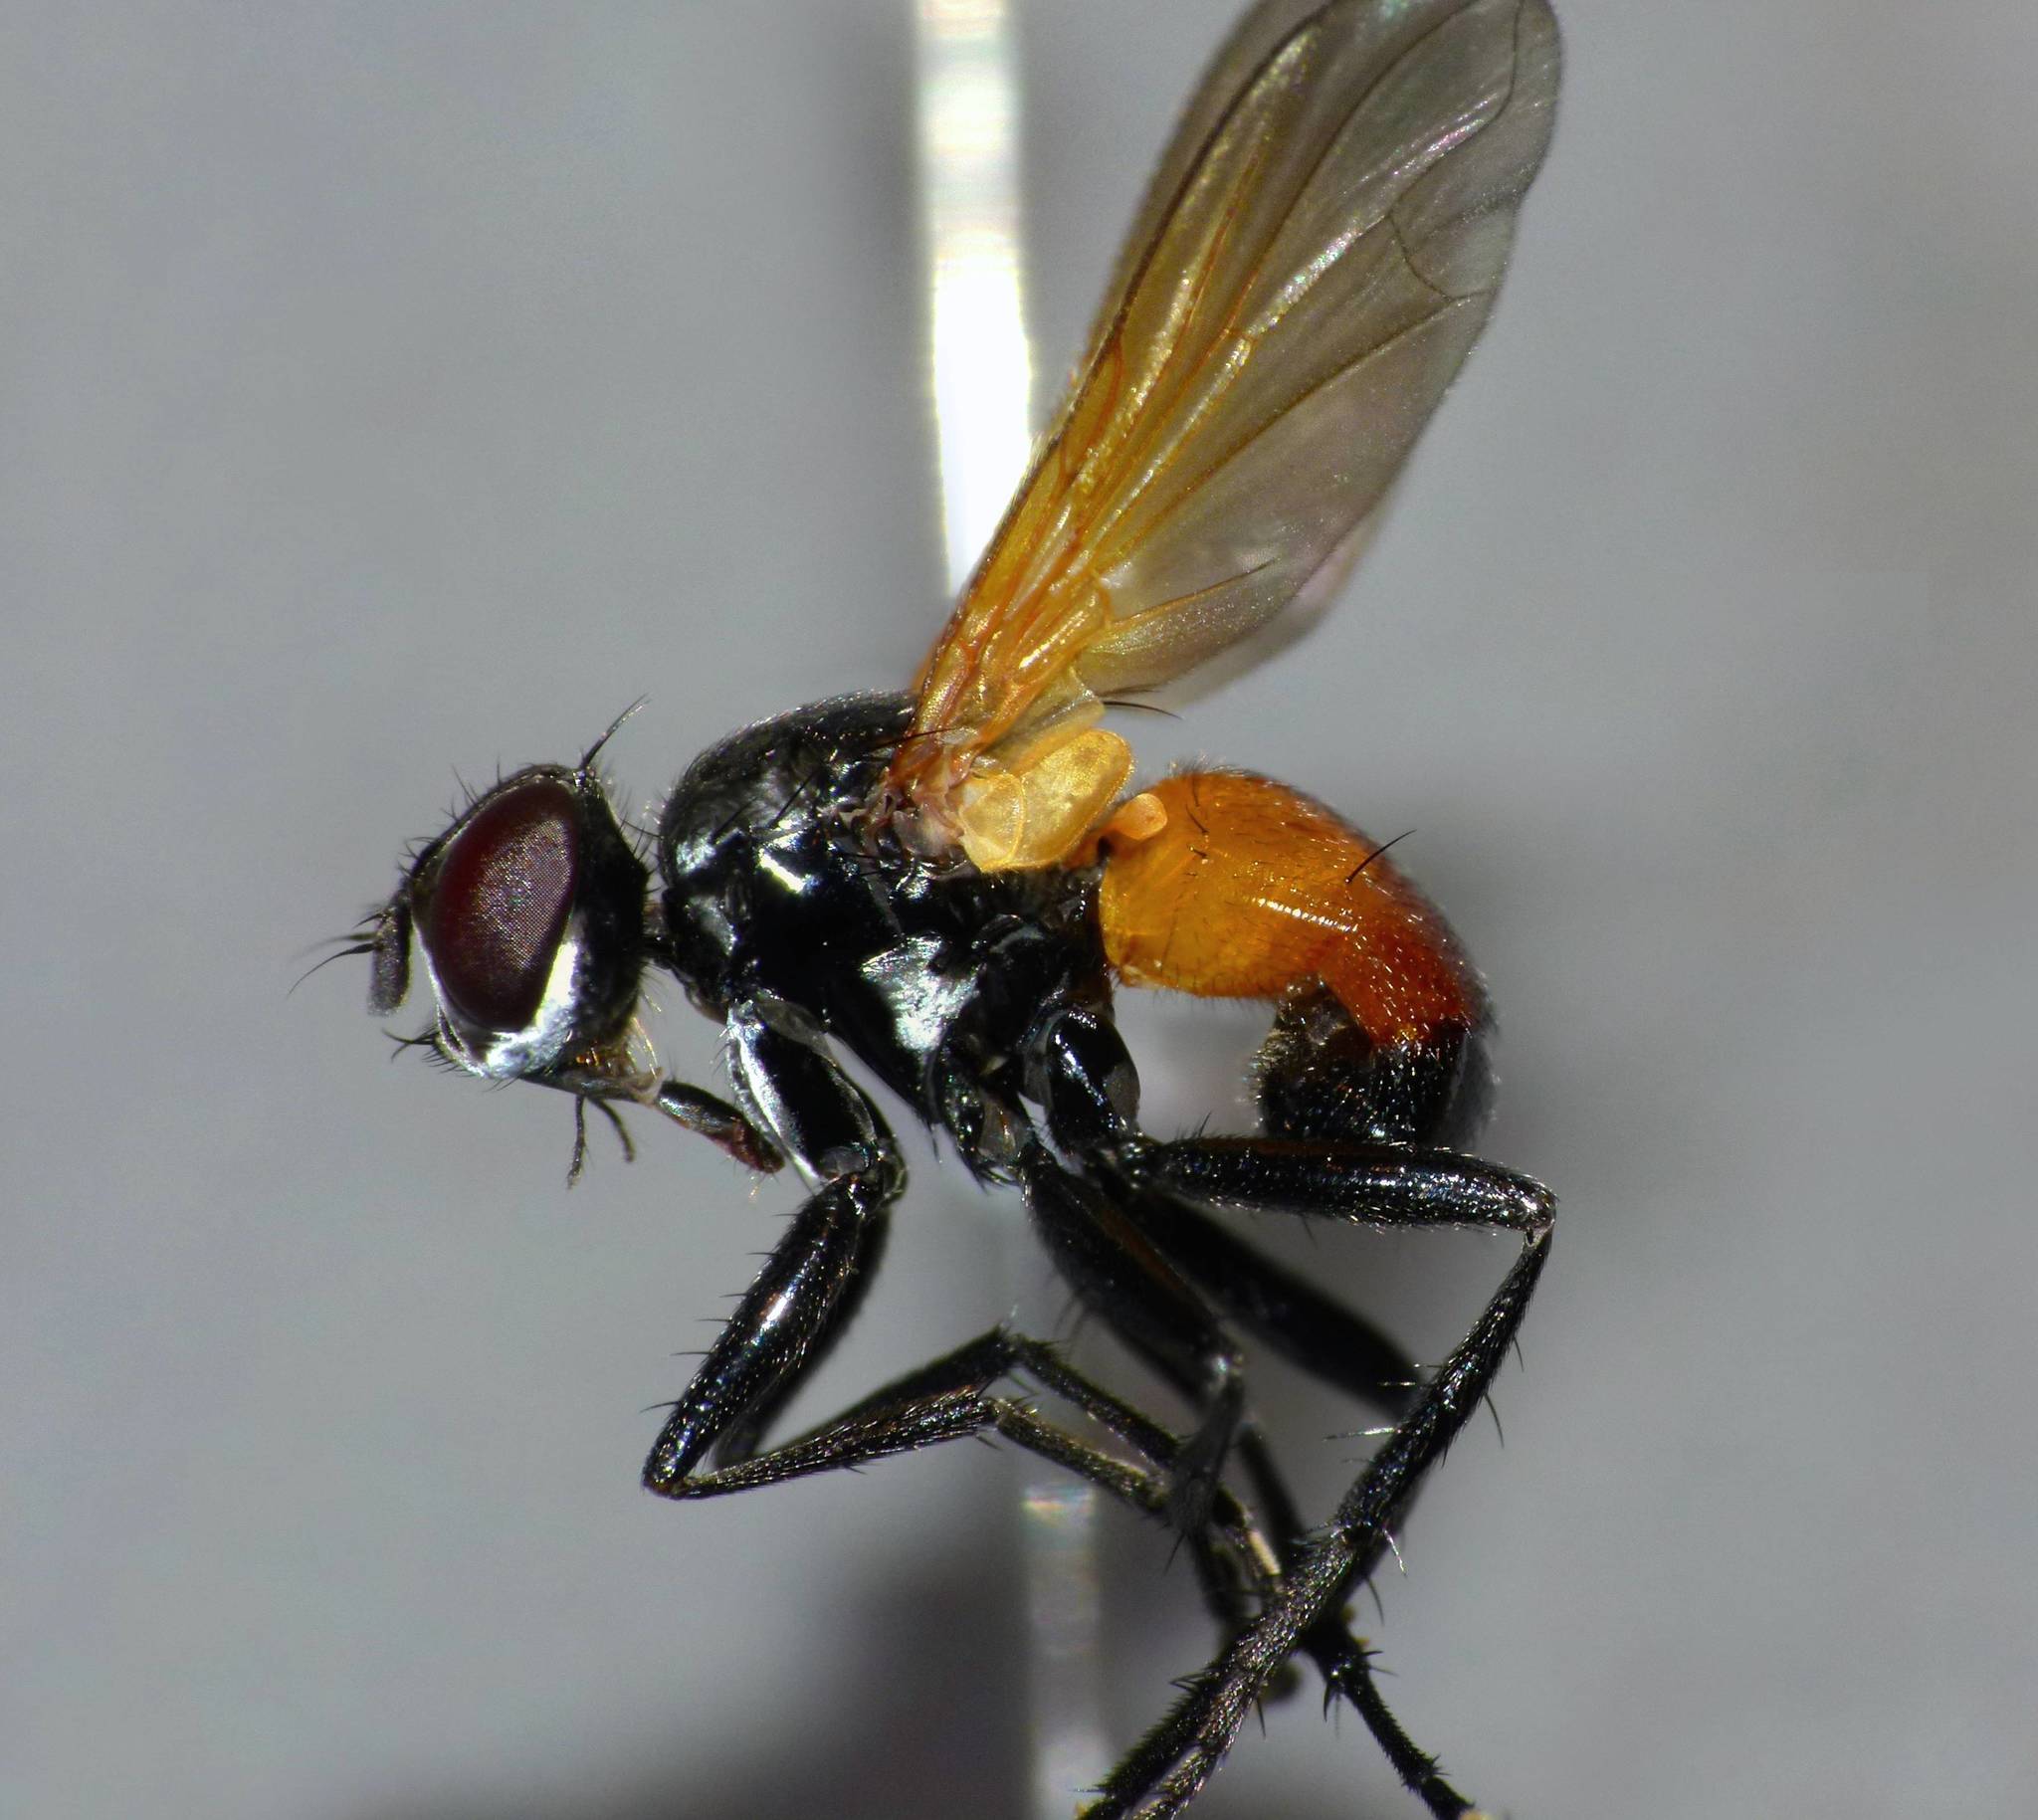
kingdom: Animalia
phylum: Arthropoda
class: Insecta
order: Diptera
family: Tachinidae
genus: Huttonobesseria
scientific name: Huttonobesseria verecunda
